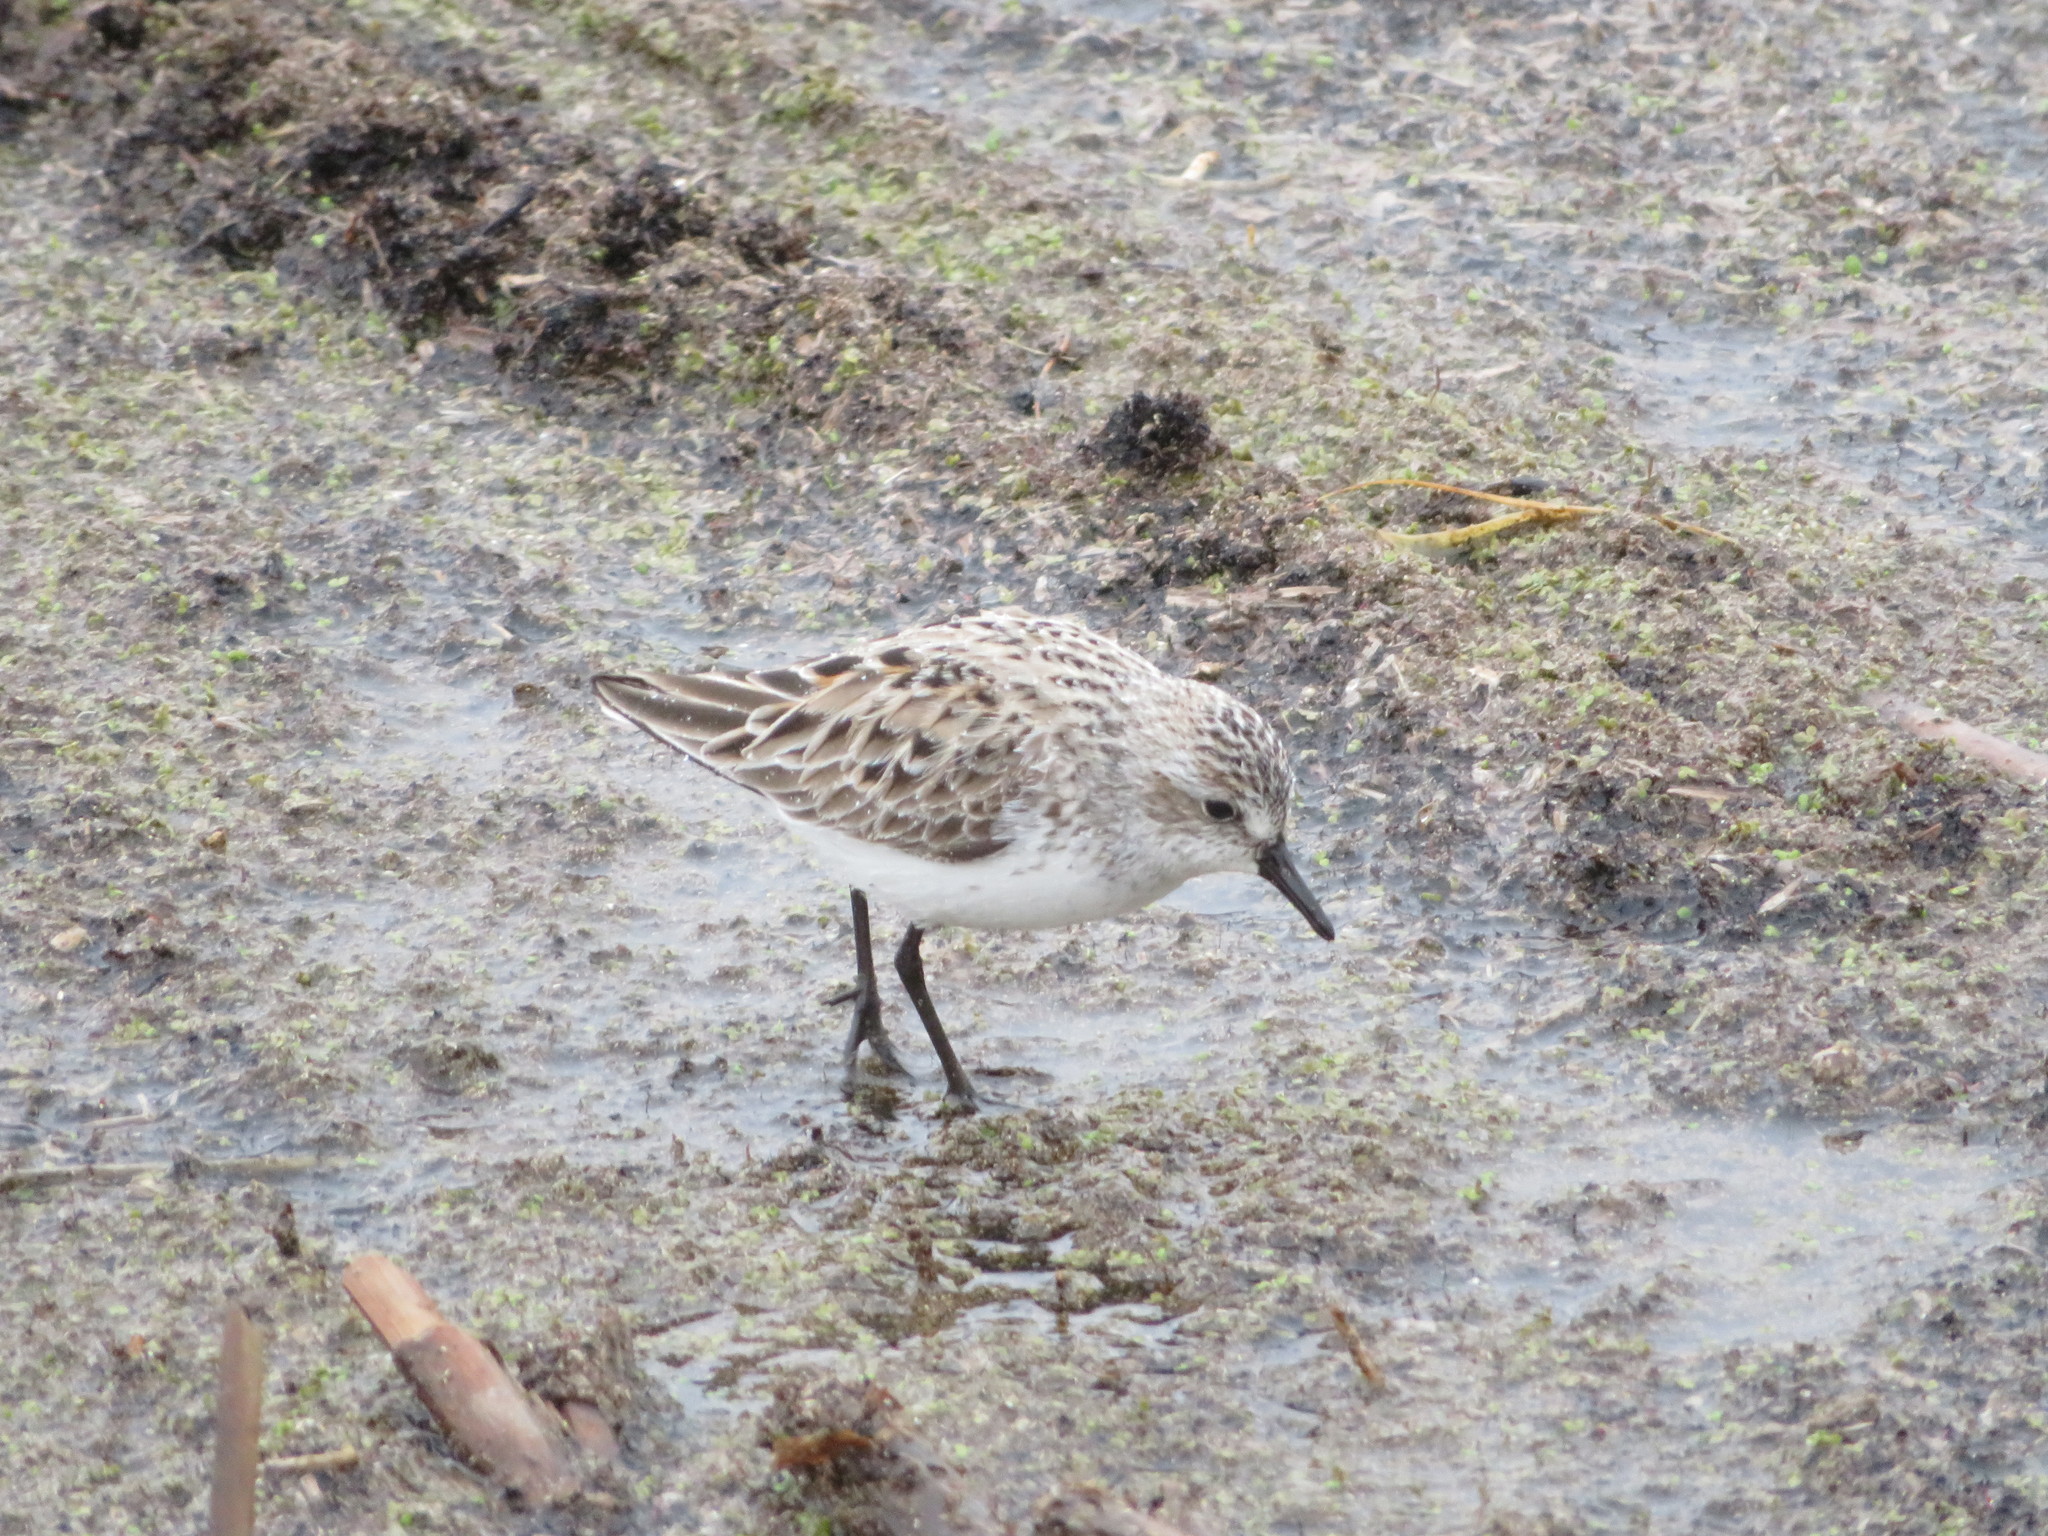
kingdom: Animalia
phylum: Chordata
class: Aves
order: Charadriiformes
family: Scolopacidae
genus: Calidris
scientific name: Calidris pusilla
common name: Semipalmated sandpiper
